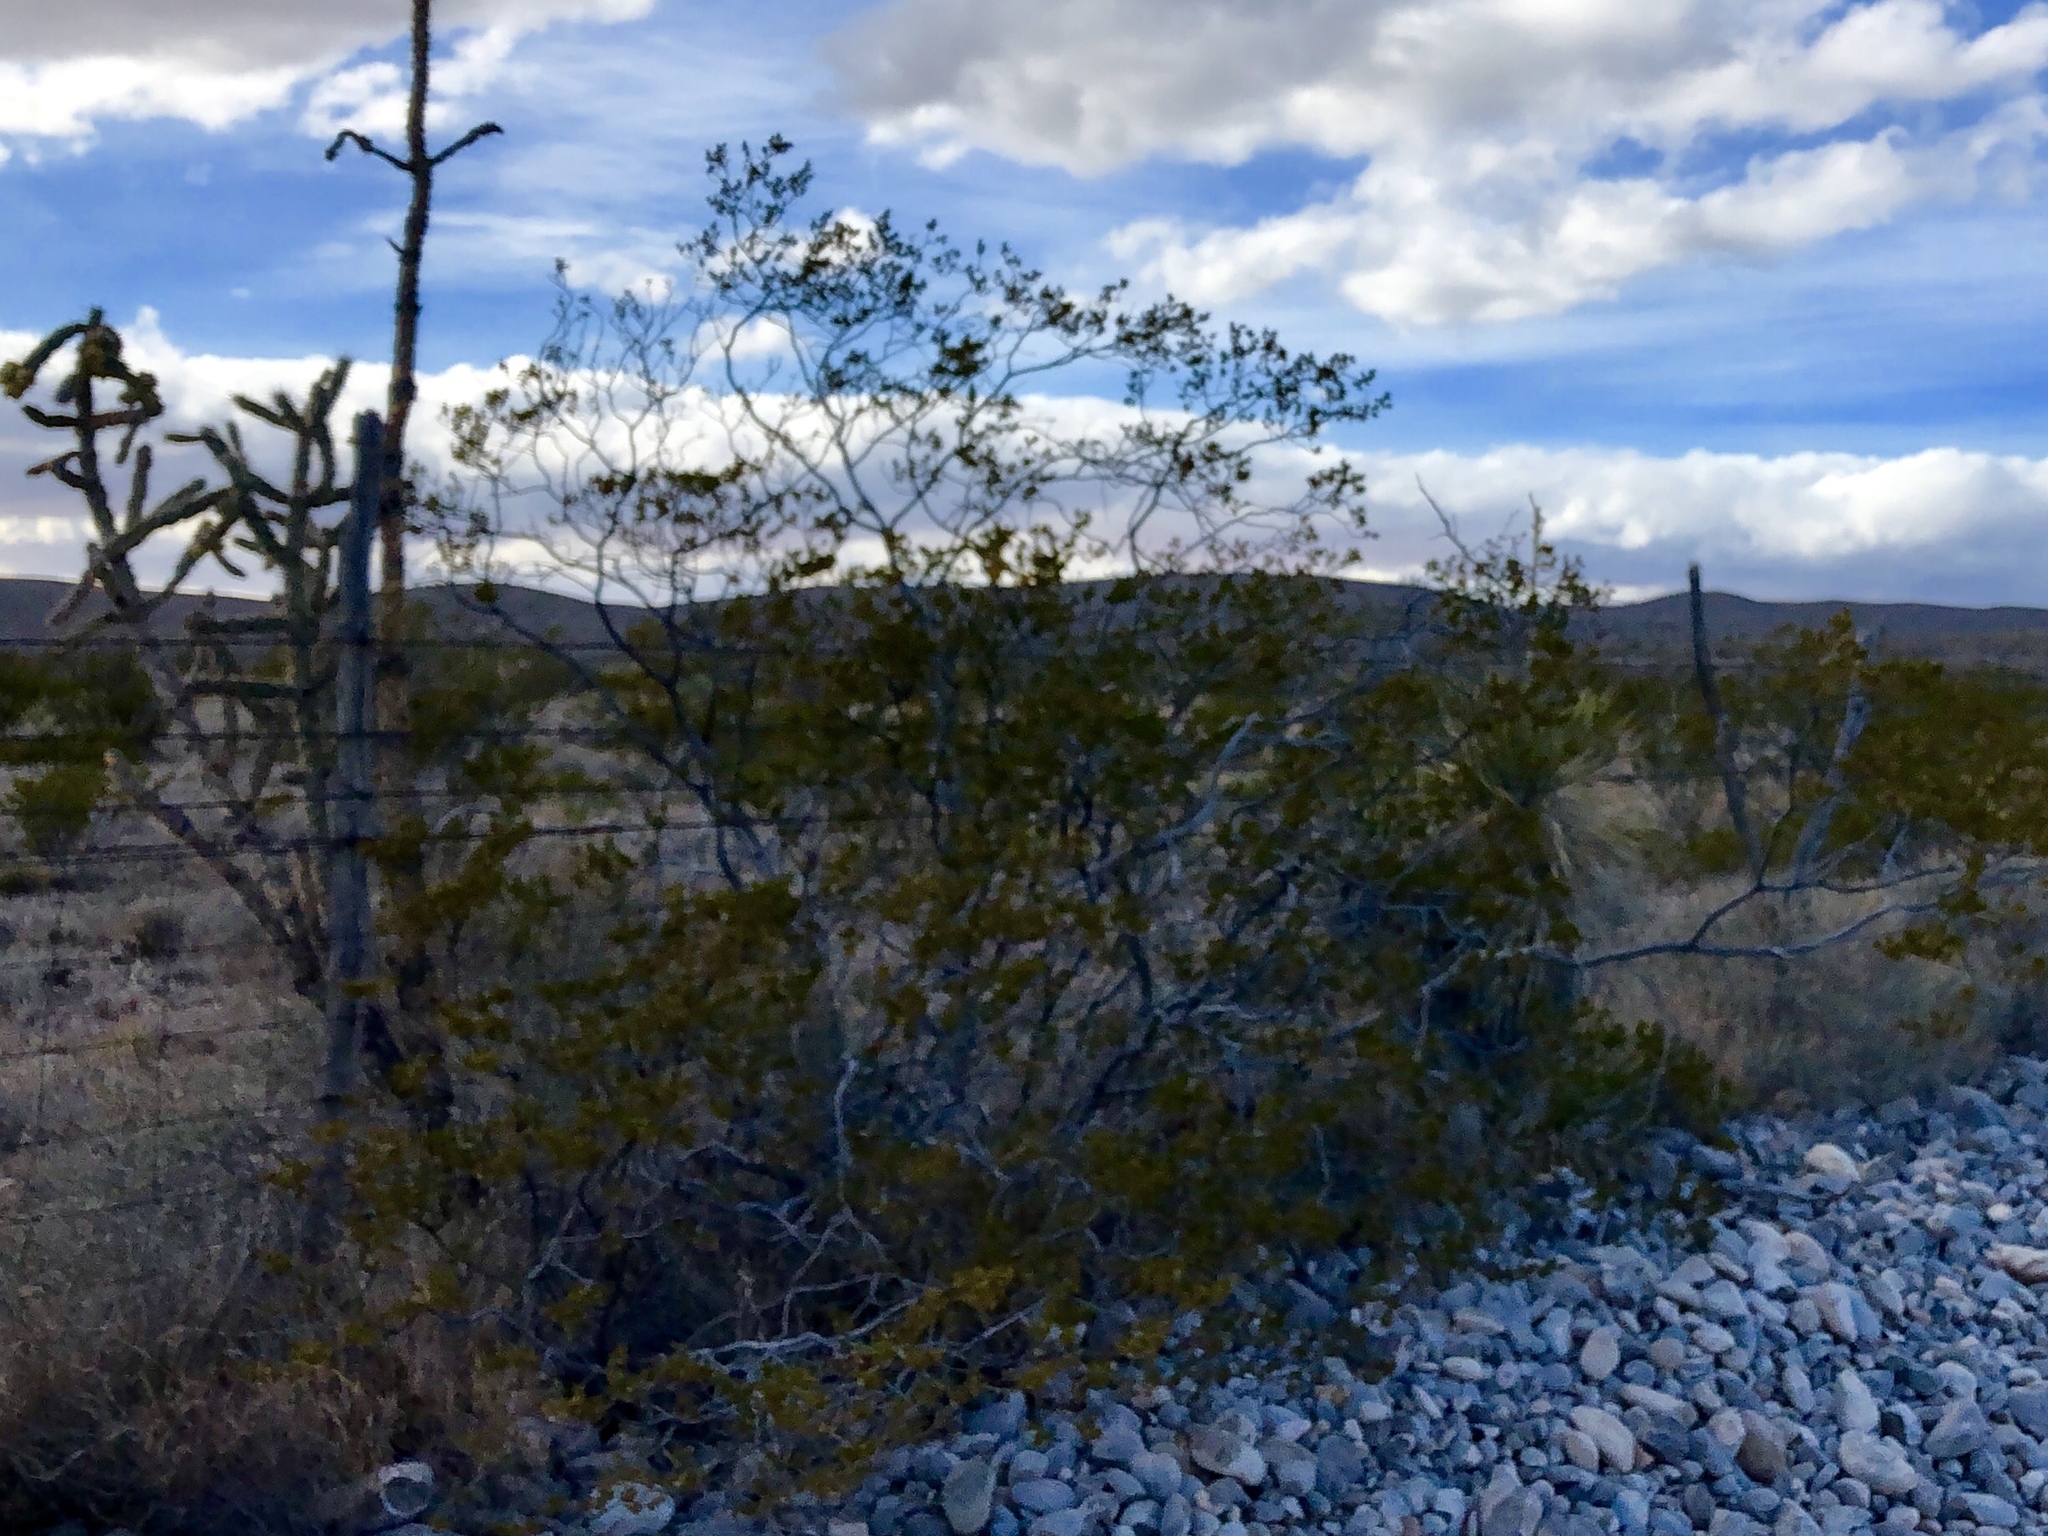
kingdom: Plantae
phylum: Tracheophyta
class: Magnoliopsida
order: Zygophyllales
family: Zygophyllaceae
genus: Larrea
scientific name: Larrea tridentata
